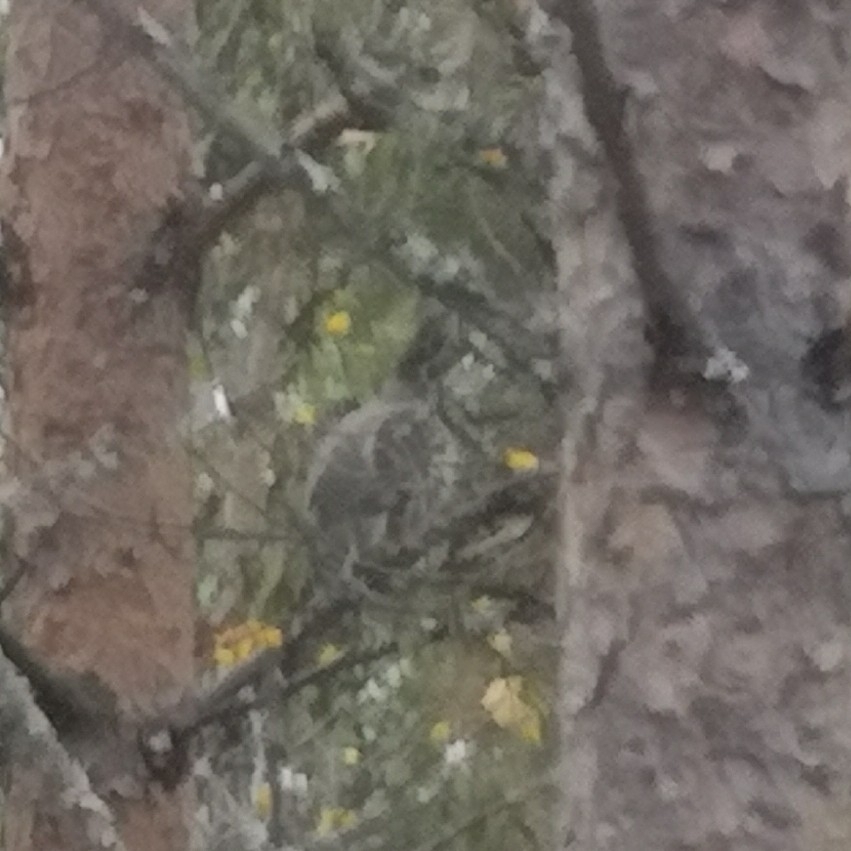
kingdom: Animalia
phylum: Chordata
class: Aves
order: Galliformes
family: Phasianidae
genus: Tetrastes
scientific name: Tetrastes bonasia
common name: Hazel grouse
